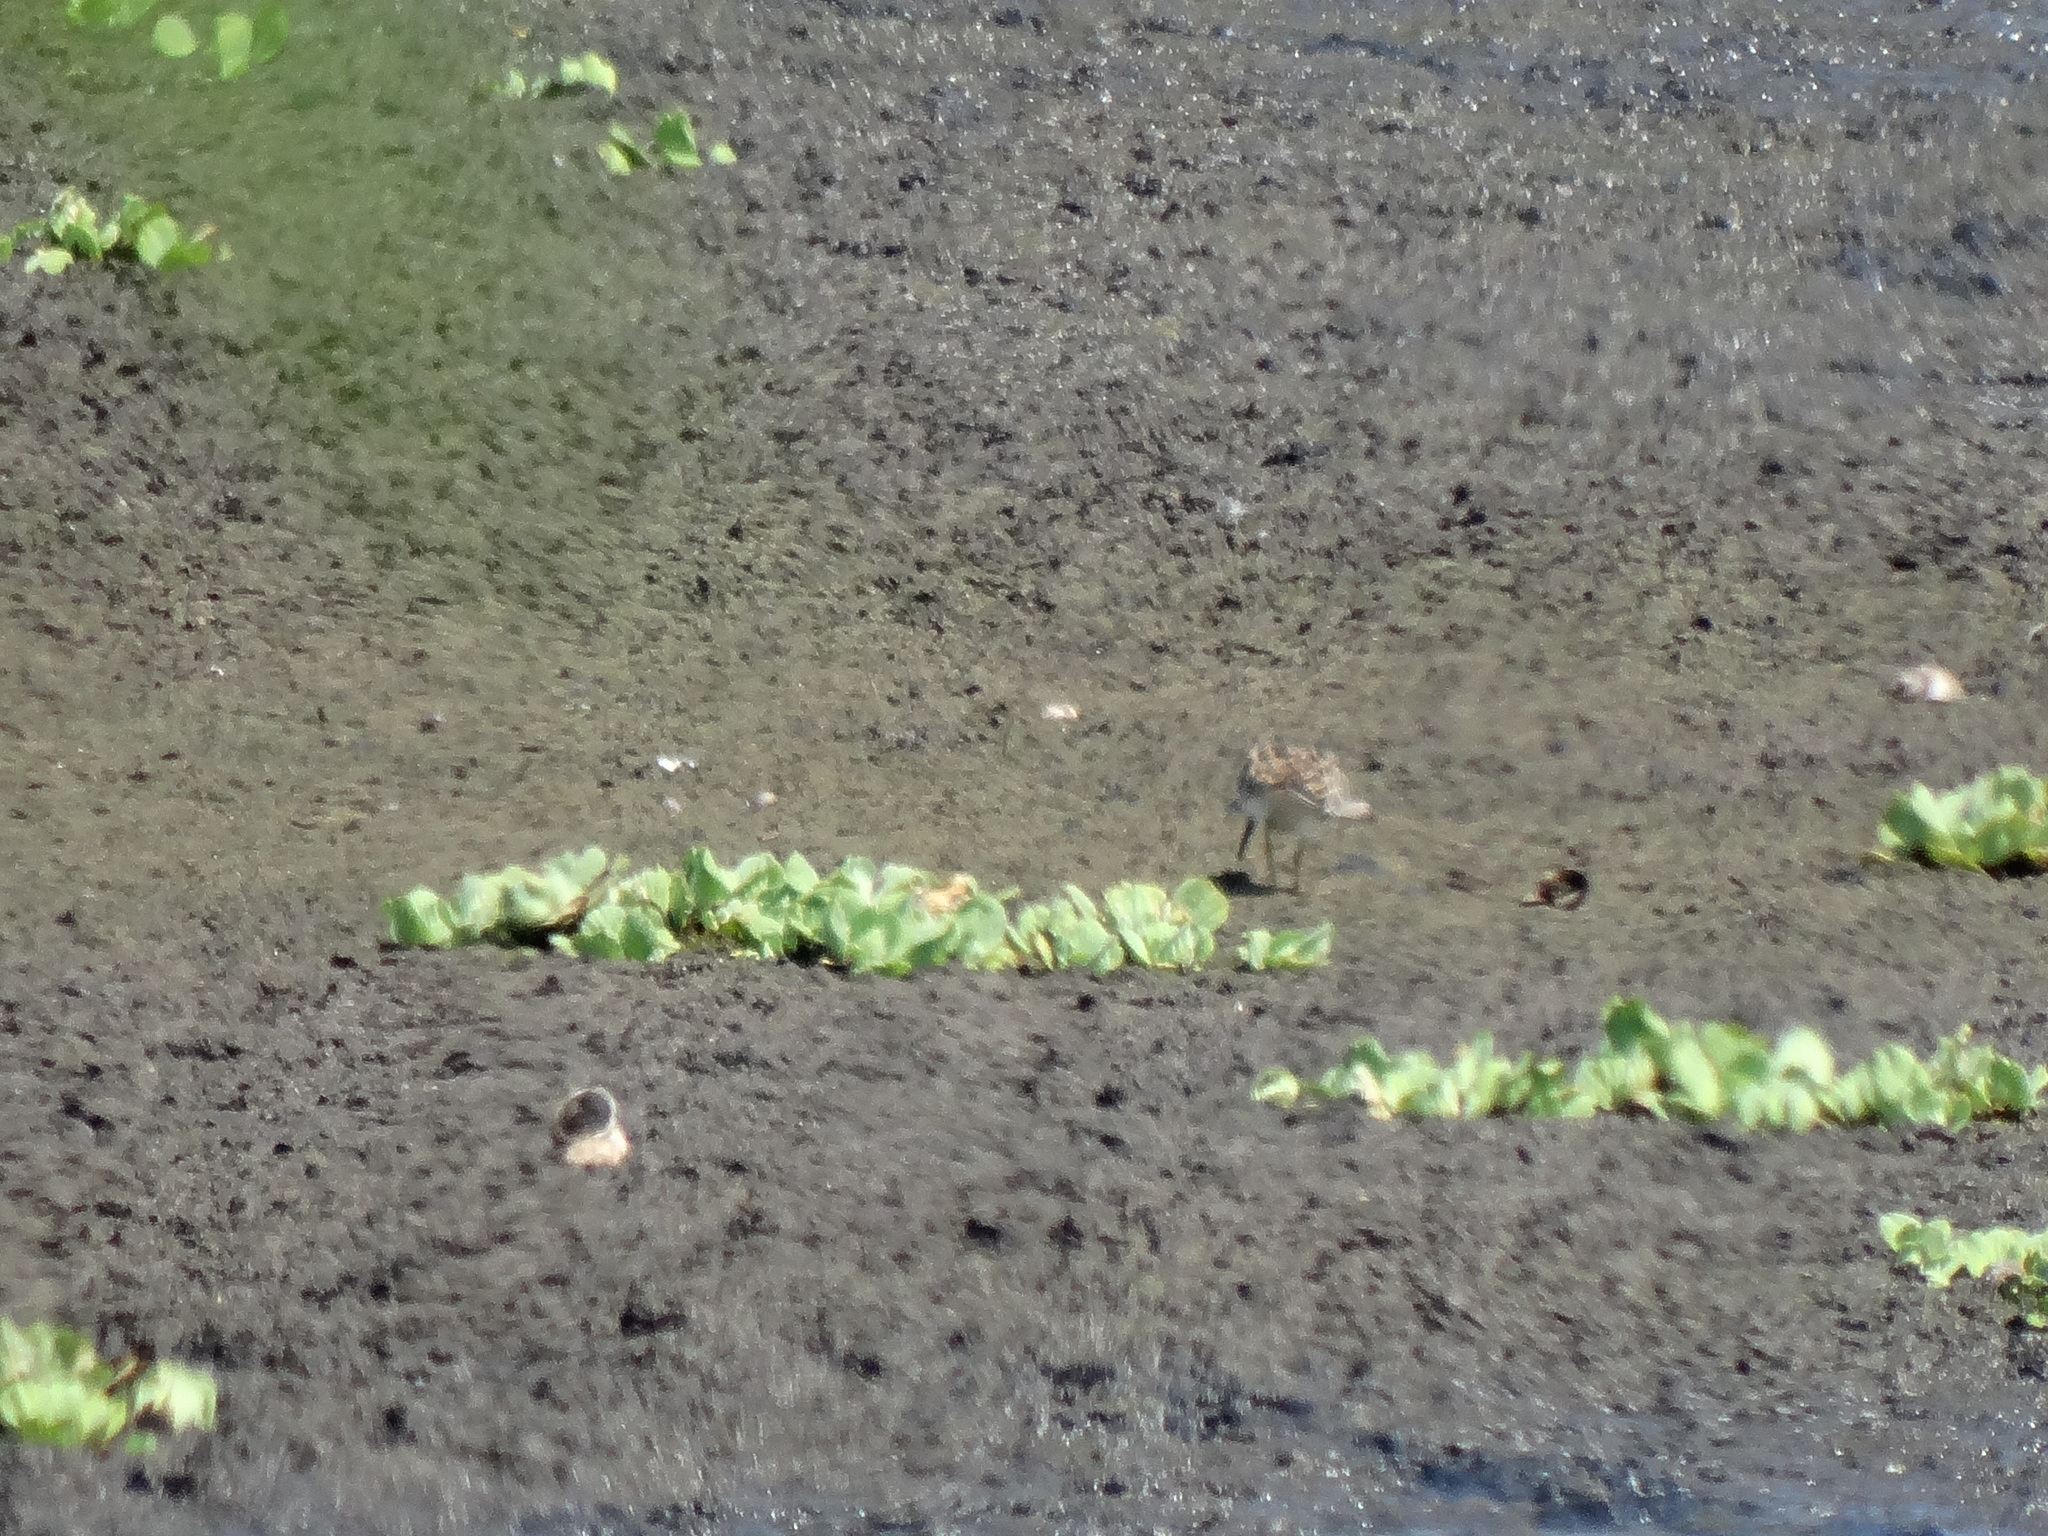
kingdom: Animalia
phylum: Chordata
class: Aves
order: Charadriiformes
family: Scolopacidae
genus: Calidris
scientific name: Calidris melanotos
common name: Pectoral sandpiper
